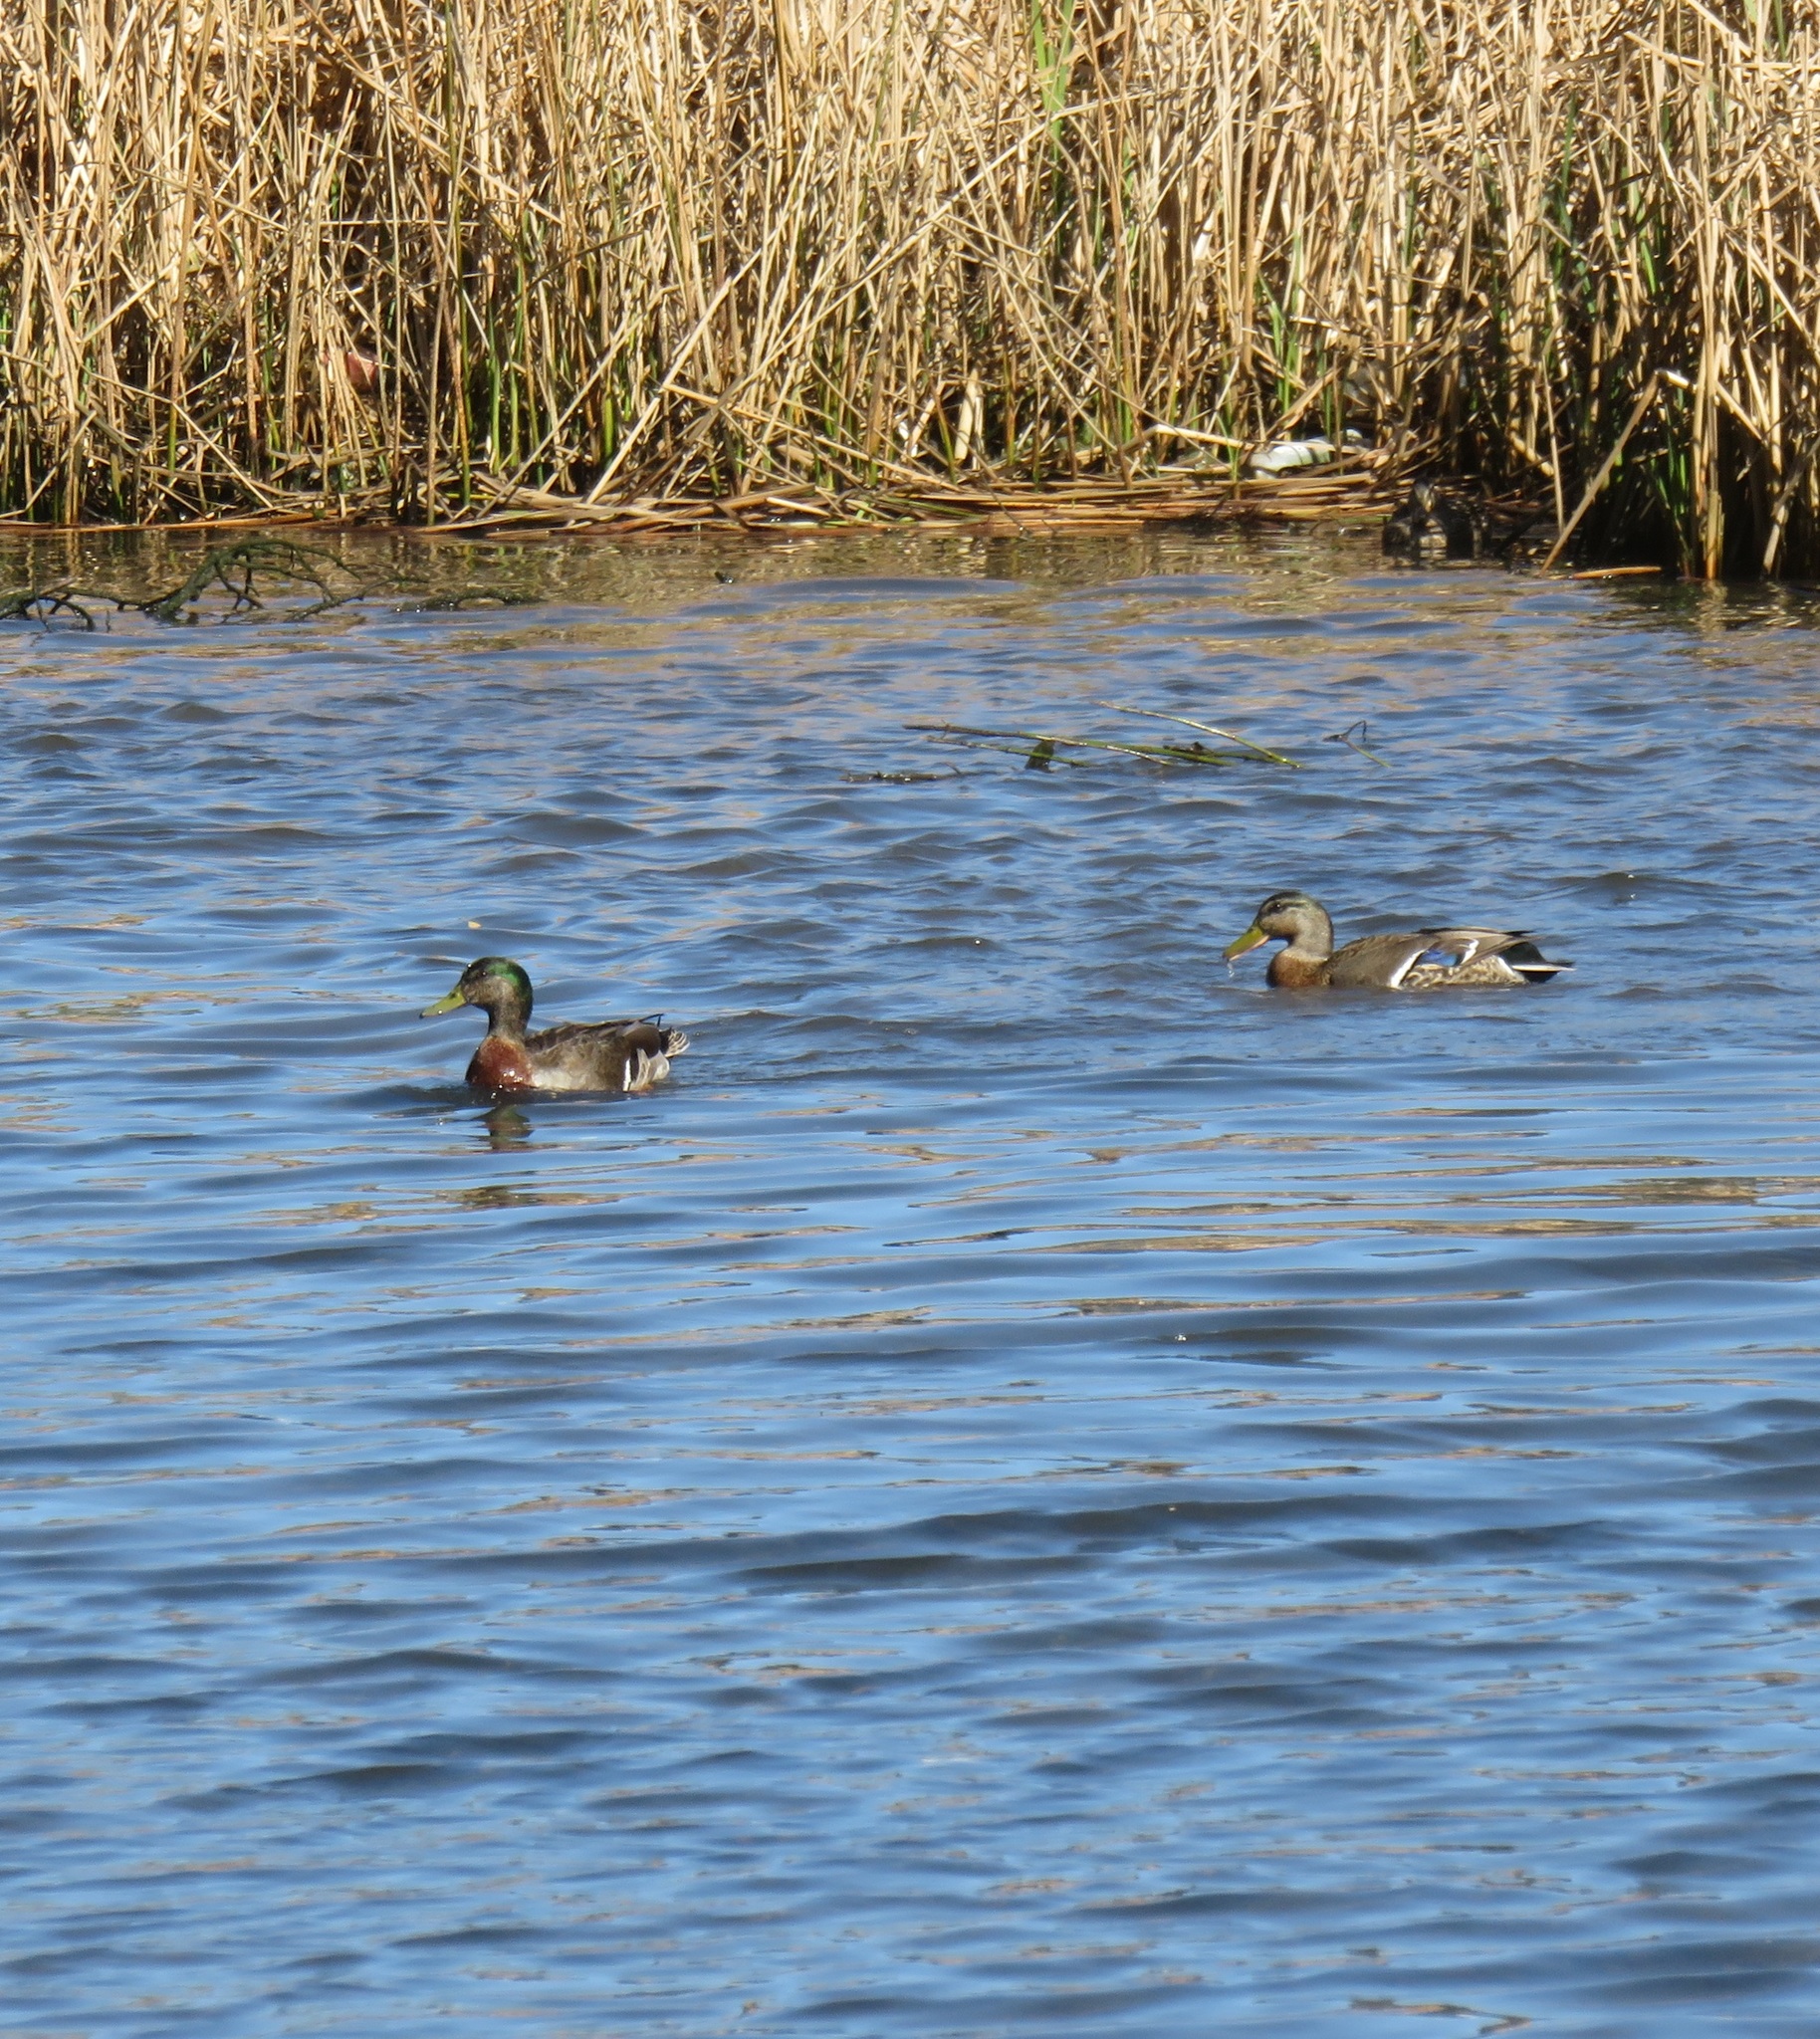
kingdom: Animalia
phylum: Chordata
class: Aves
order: Anseriformes
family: Anatidae
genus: Anas
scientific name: Anas platyrhynchos
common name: Mallard
